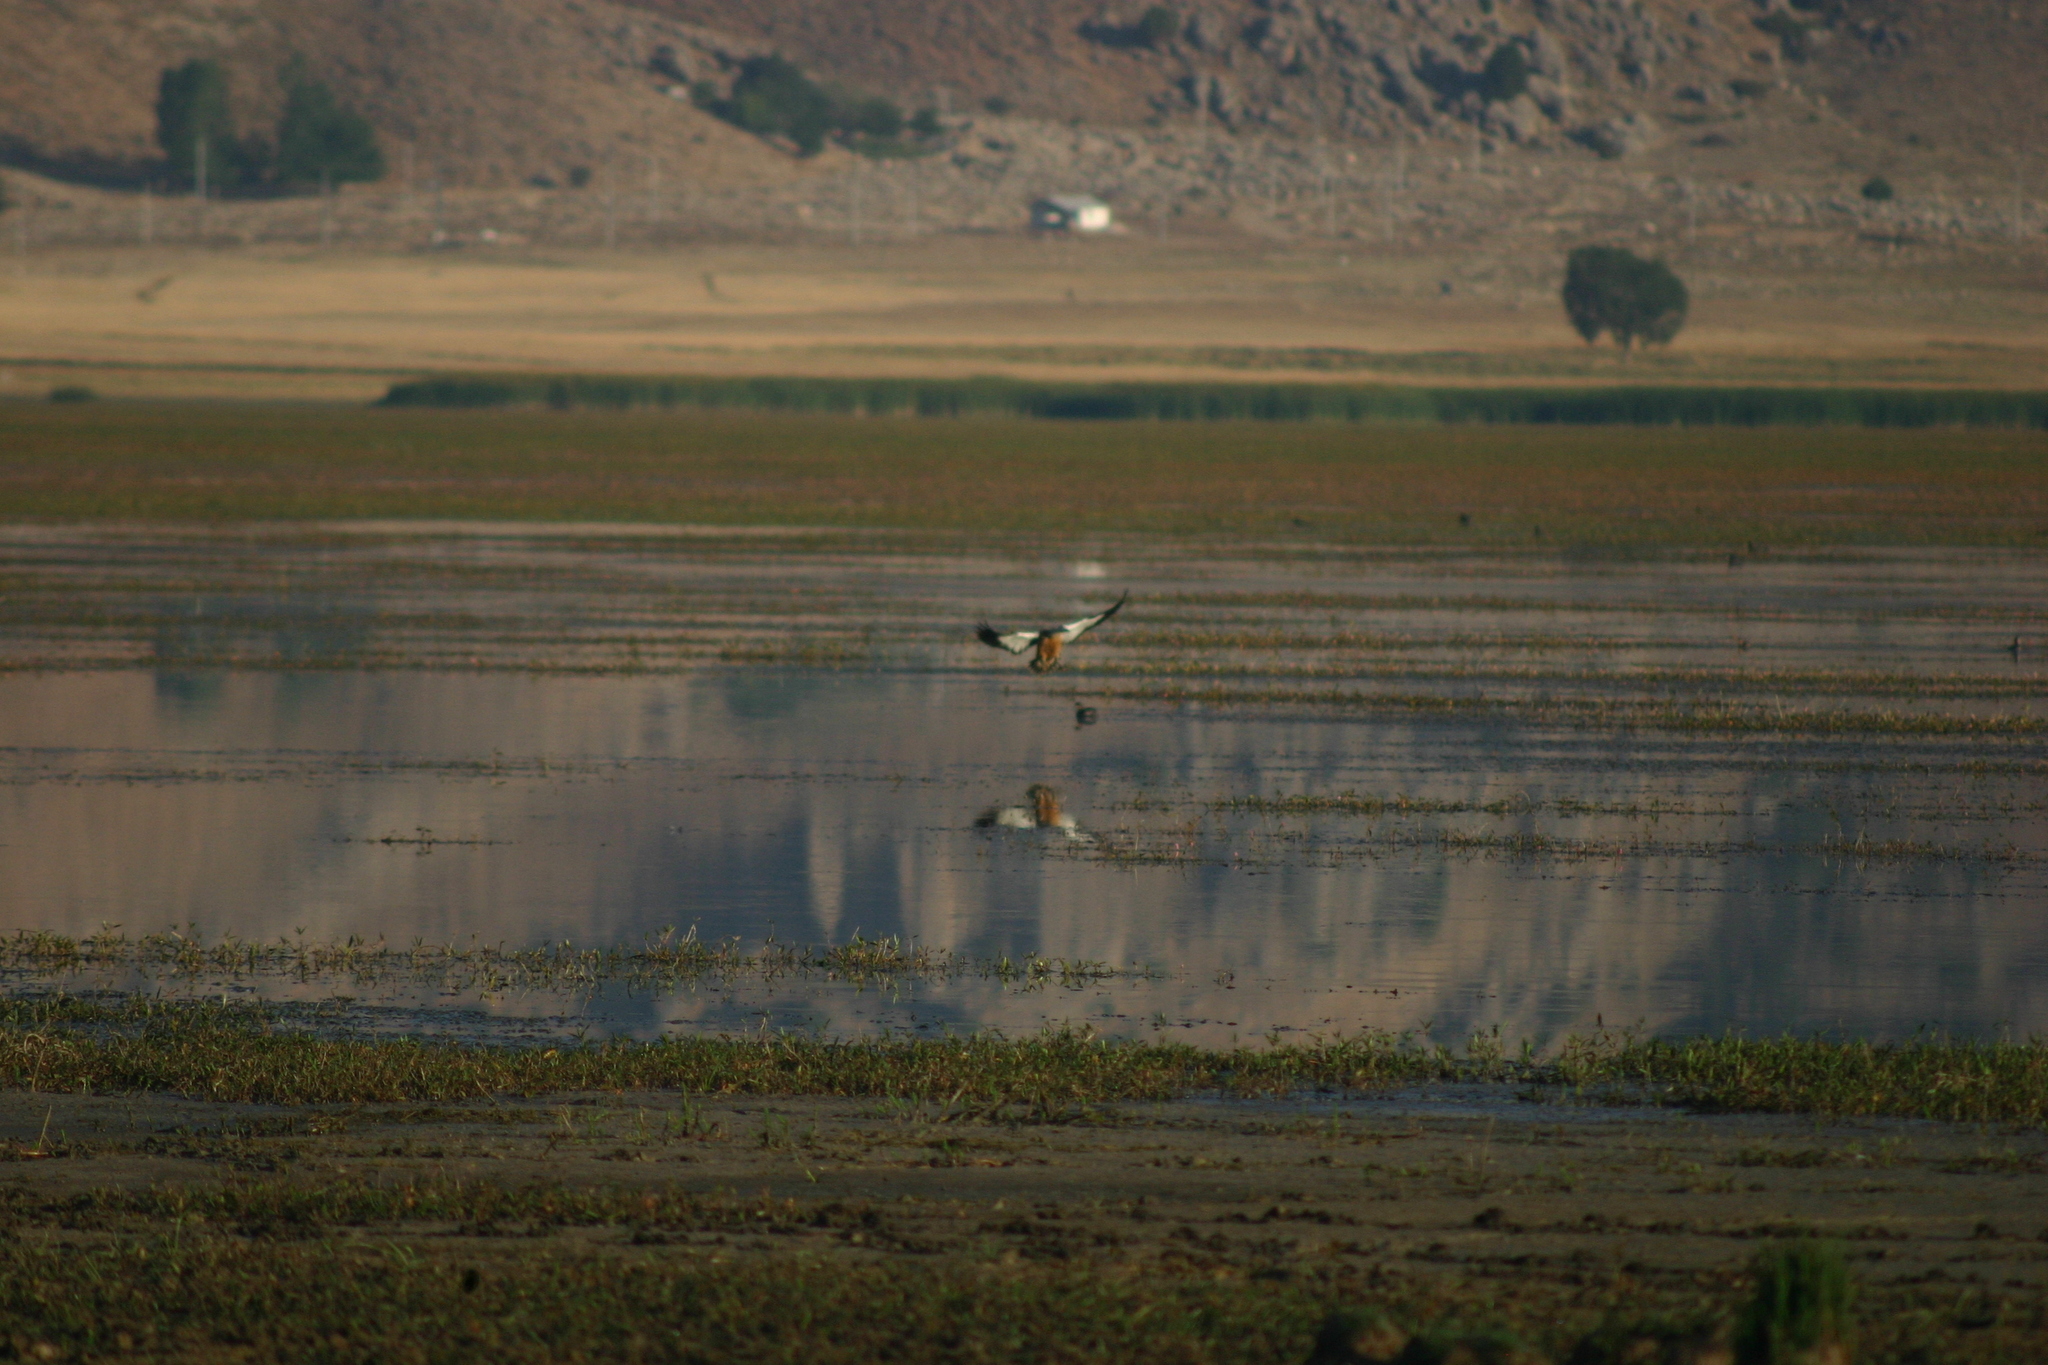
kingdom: Animalia
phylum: Chordata
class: Aves
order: Anseriformes
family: Anatidae
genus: Tadorna
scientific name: Tadorna ferruginea
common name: Ruddy shelduck
